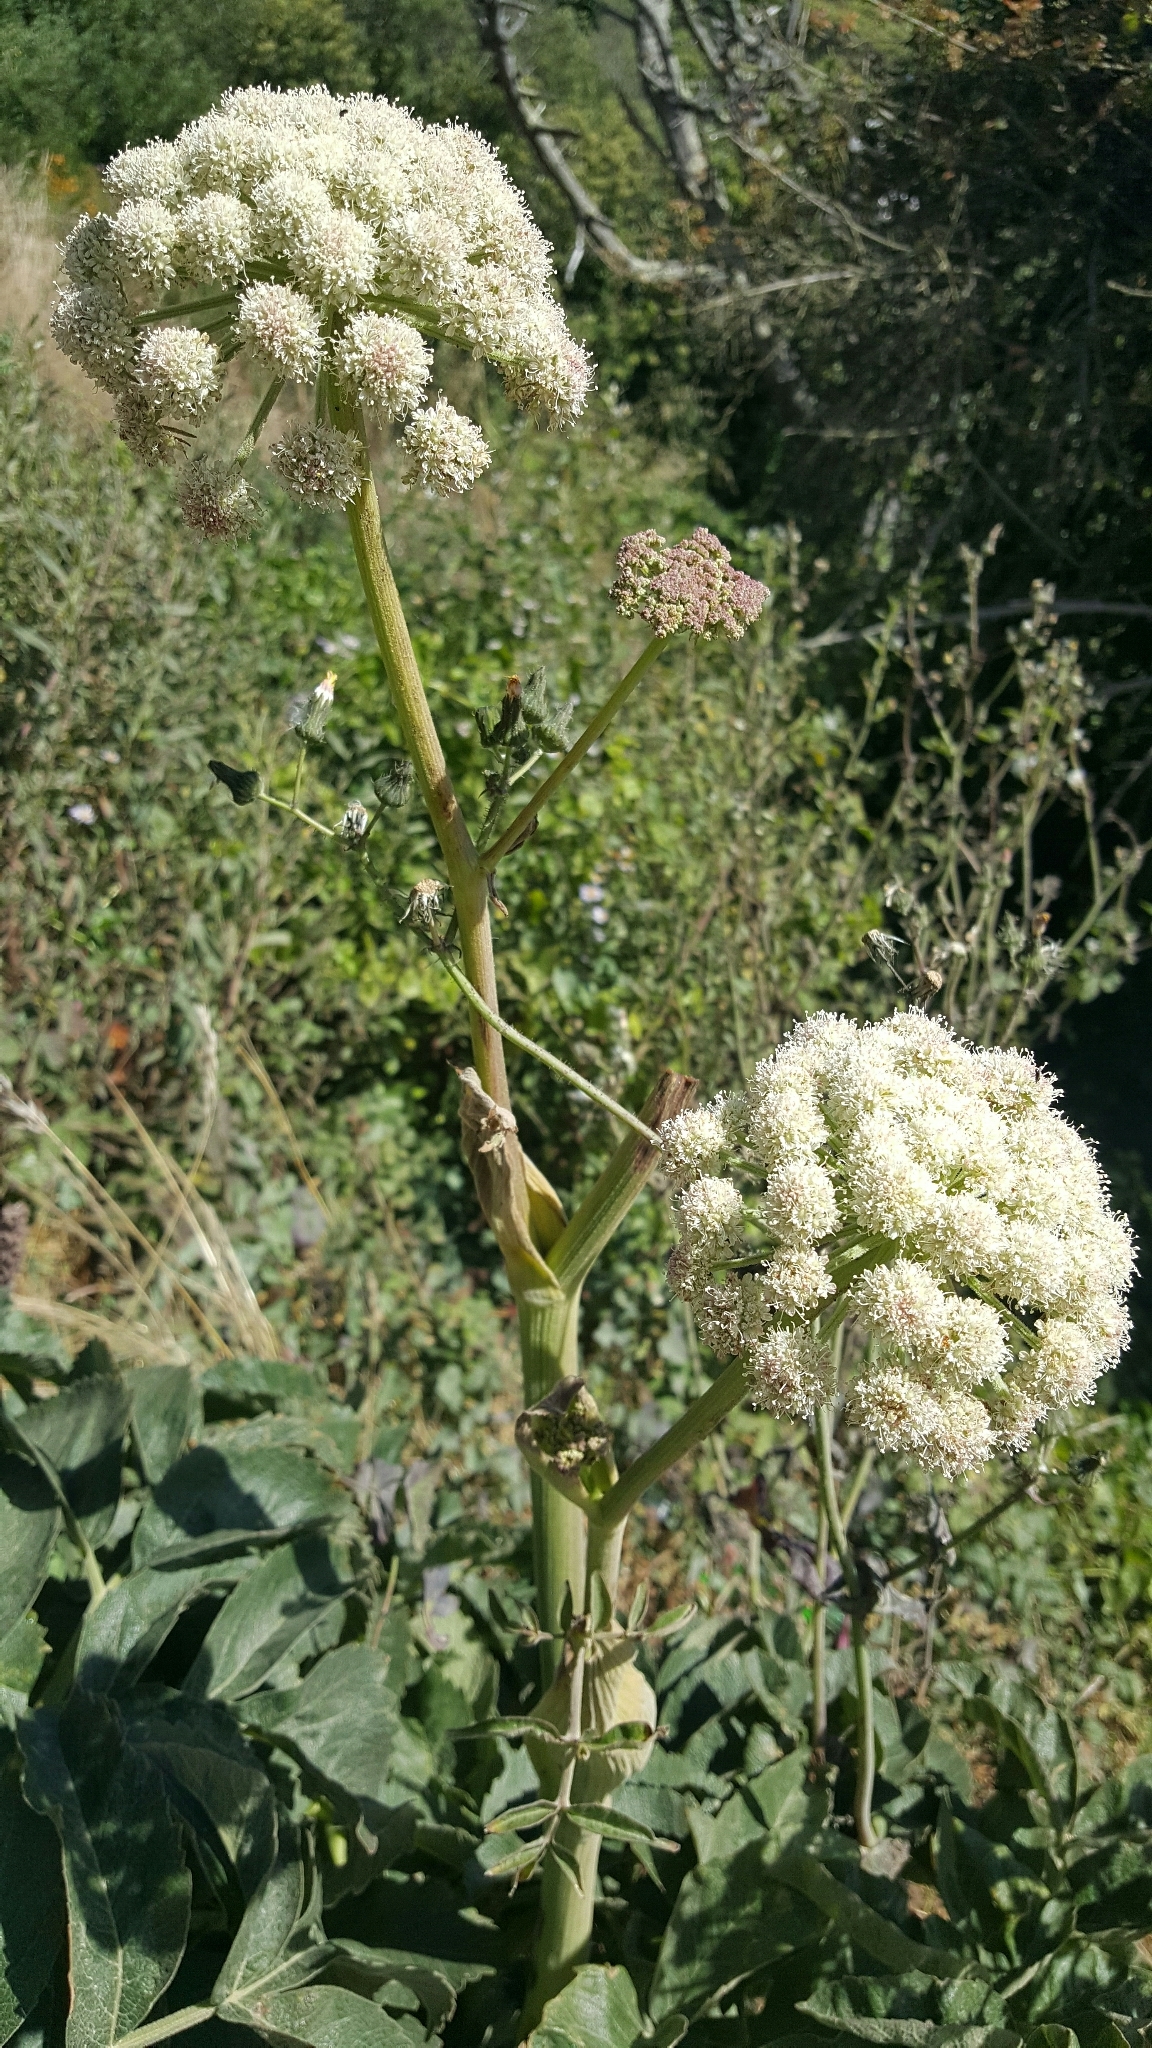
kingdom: Plantae
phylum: Tracheophyta
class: Magnoliopsida
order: Apiales
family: Apiaceae
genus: Angelica
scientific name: Angelica hendersonii
